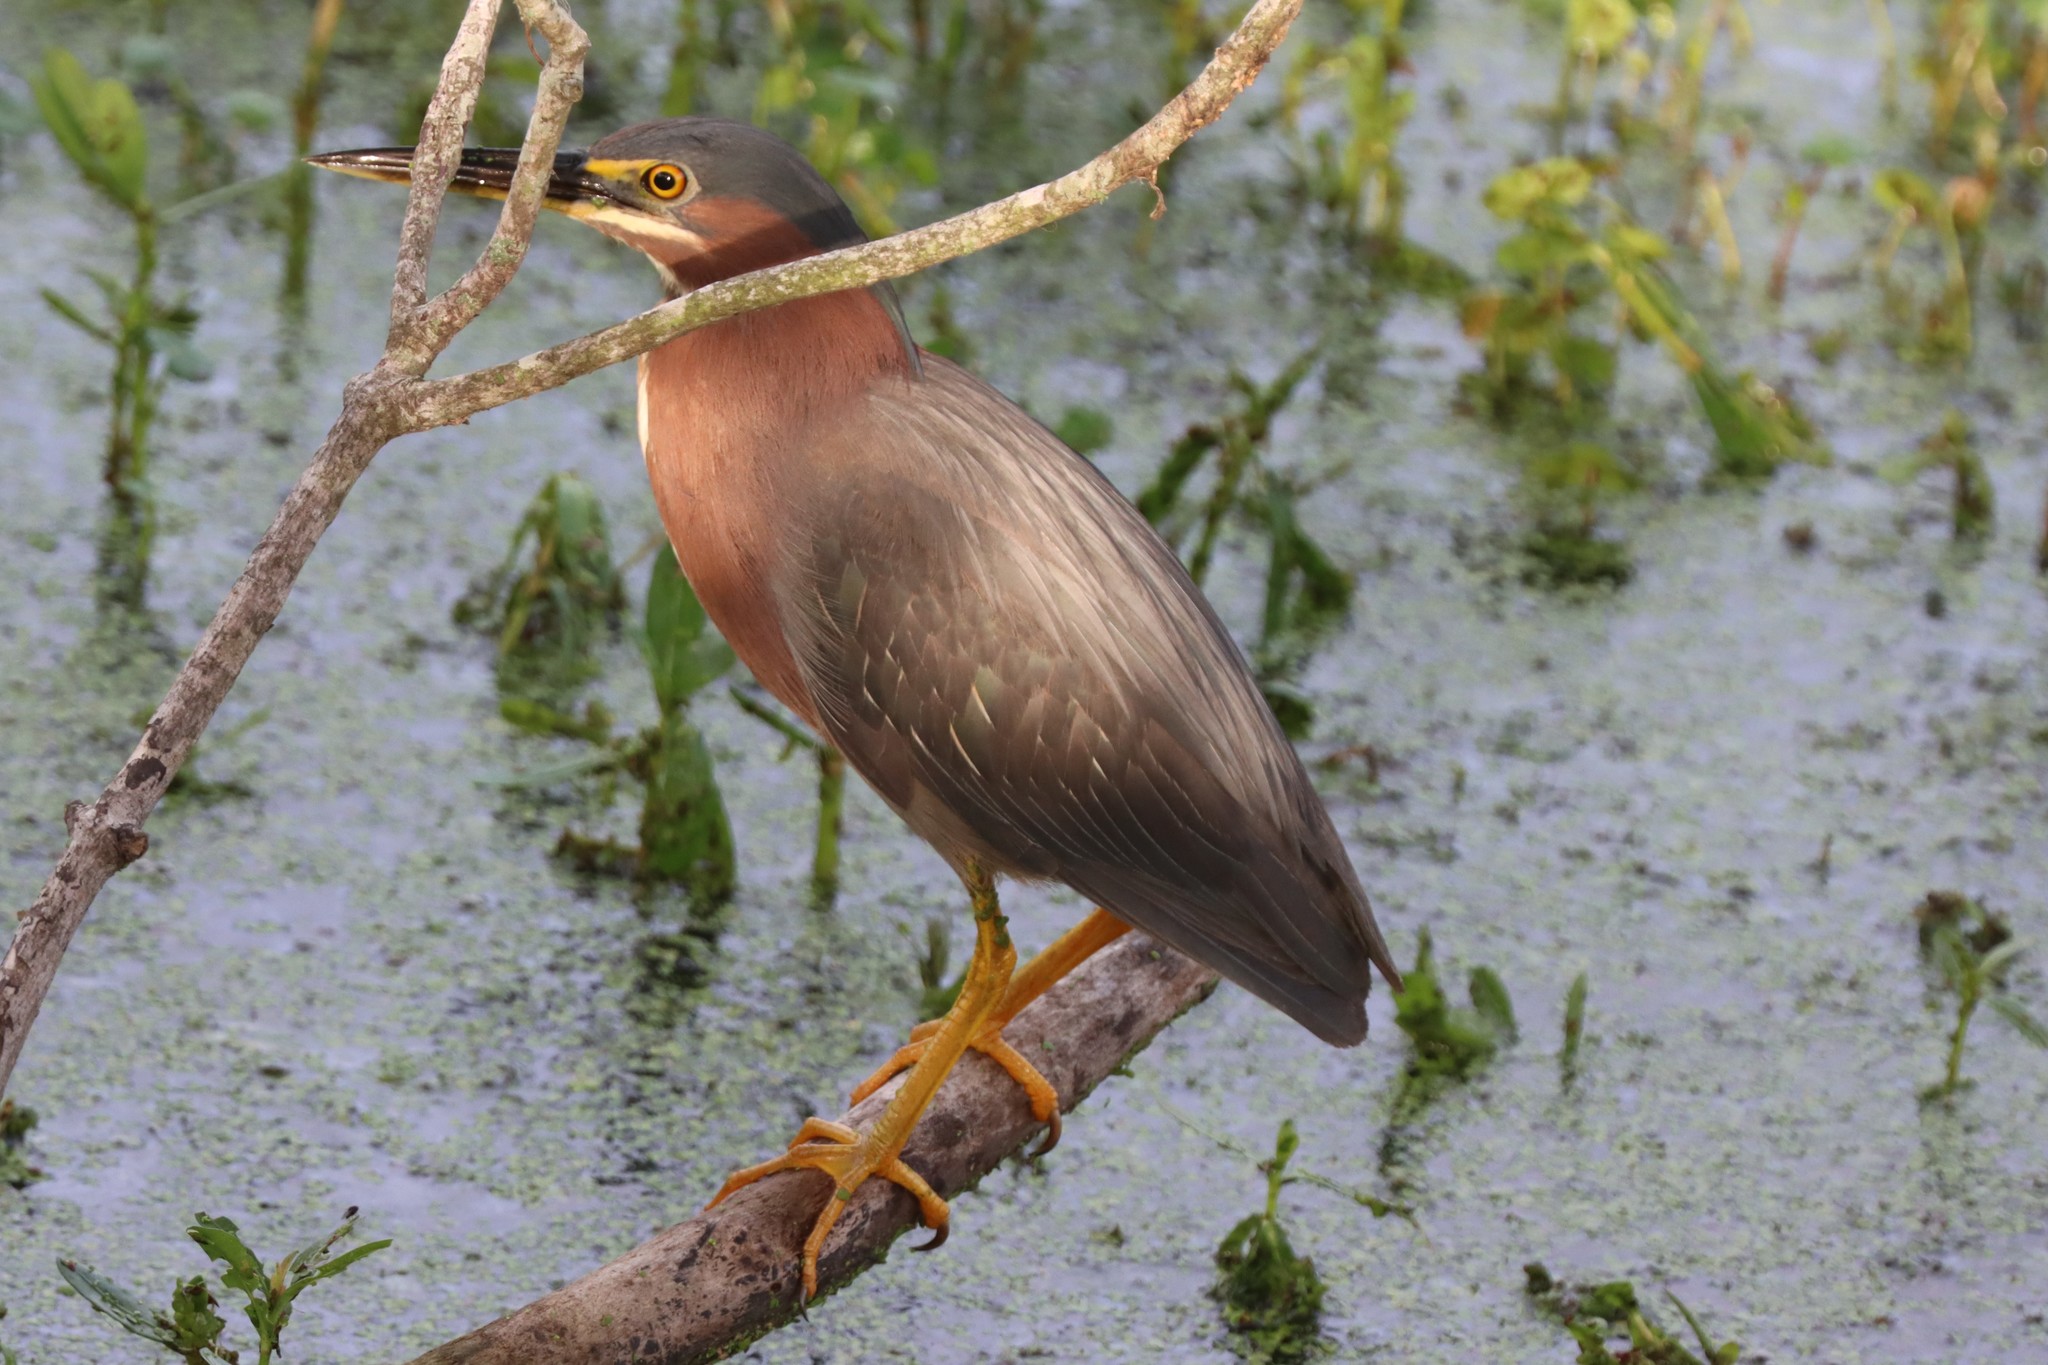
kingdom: Animalia
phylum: Chordata
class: Aves
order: Pelecaniformes
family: Ardeidae
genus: Butorides
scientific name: Butorides virescens
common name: Green heron
